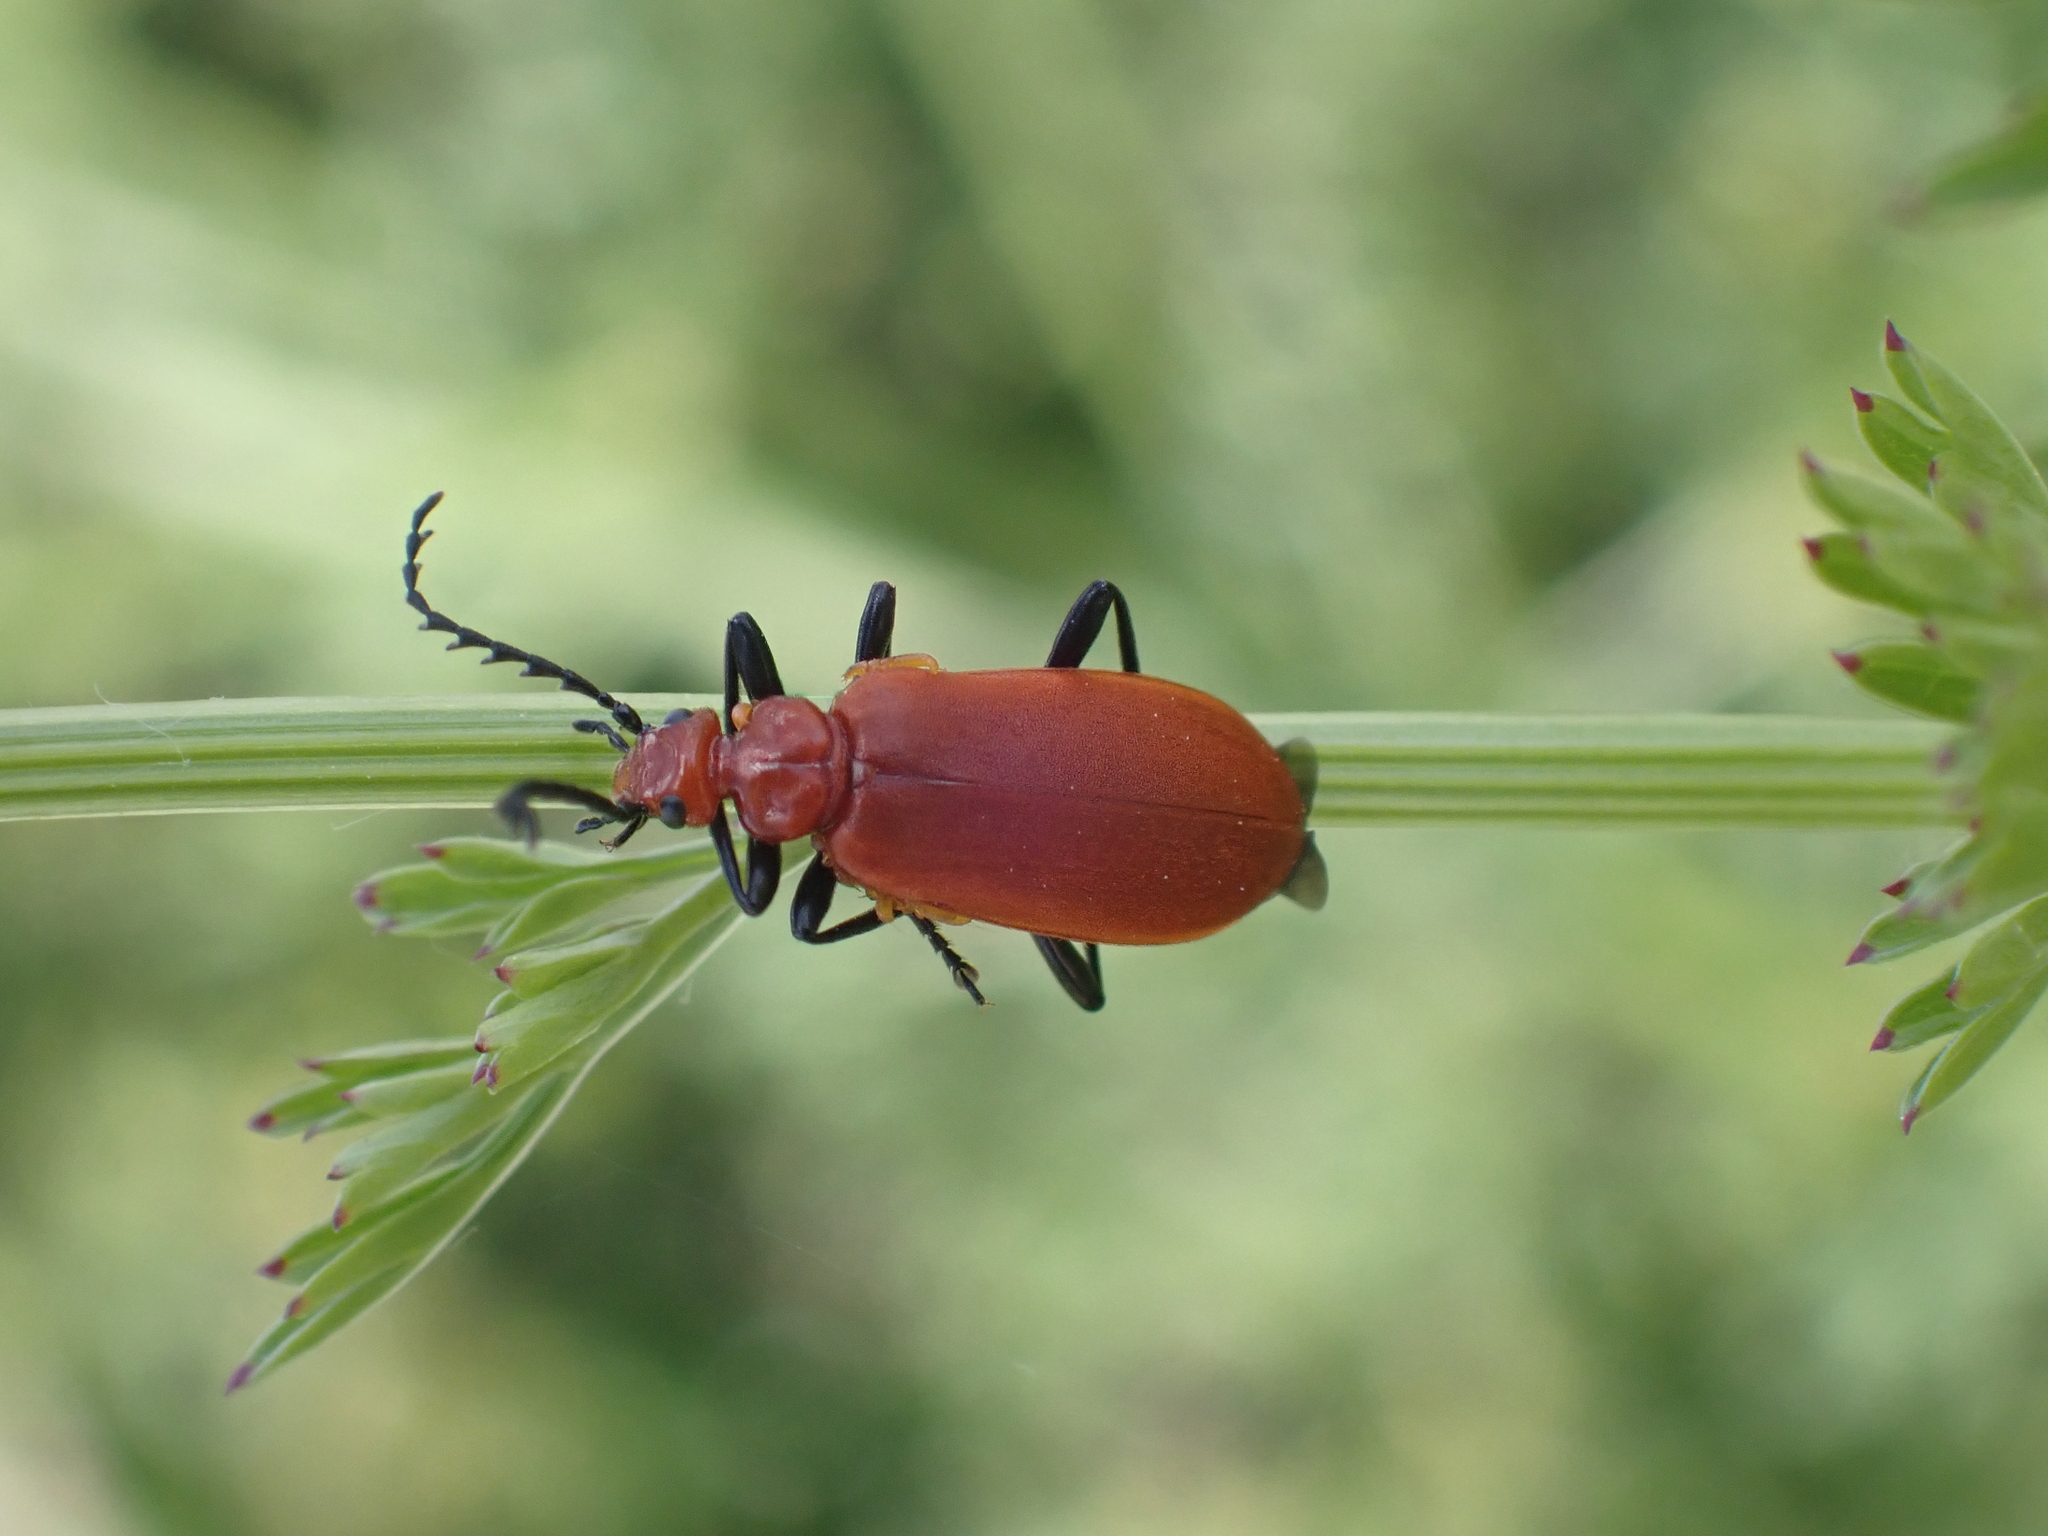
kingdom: Animalia
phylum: Arthropoda
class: Insecta
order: Coleoptera
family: Pyrochroidae
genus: Pyrochroa
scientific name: Pyrochroa serraticornis
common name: Red-headed cardinal beetle
